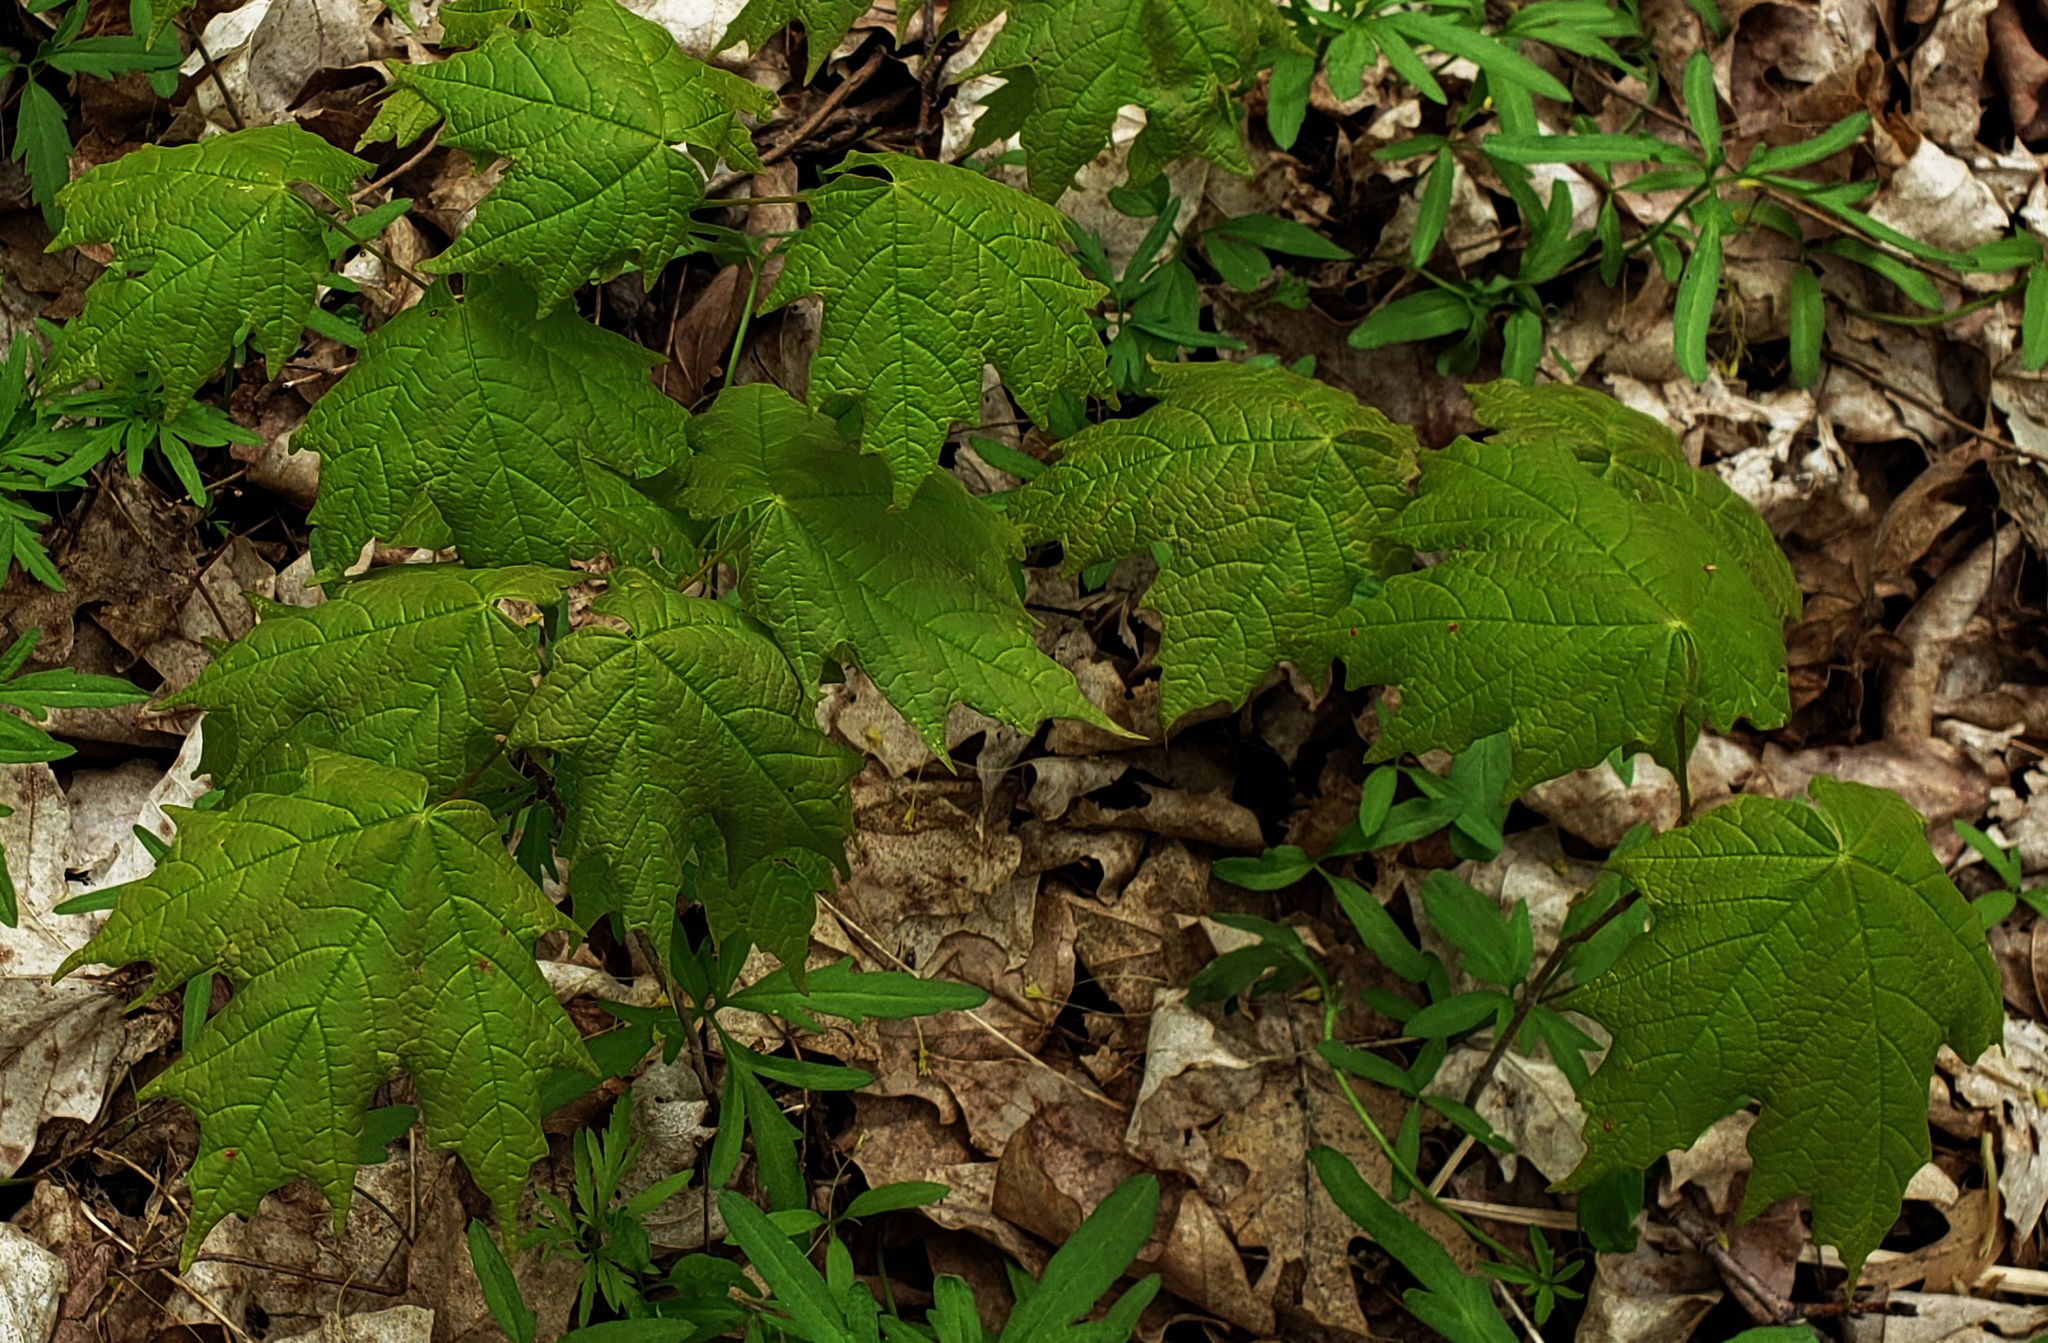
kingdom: Plantae
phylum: Tracheophyta
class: Magnoliopsida
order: Sapindales
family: Sapindaceae
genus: Acer
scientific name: Acer saccharum
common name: Sugar maple
